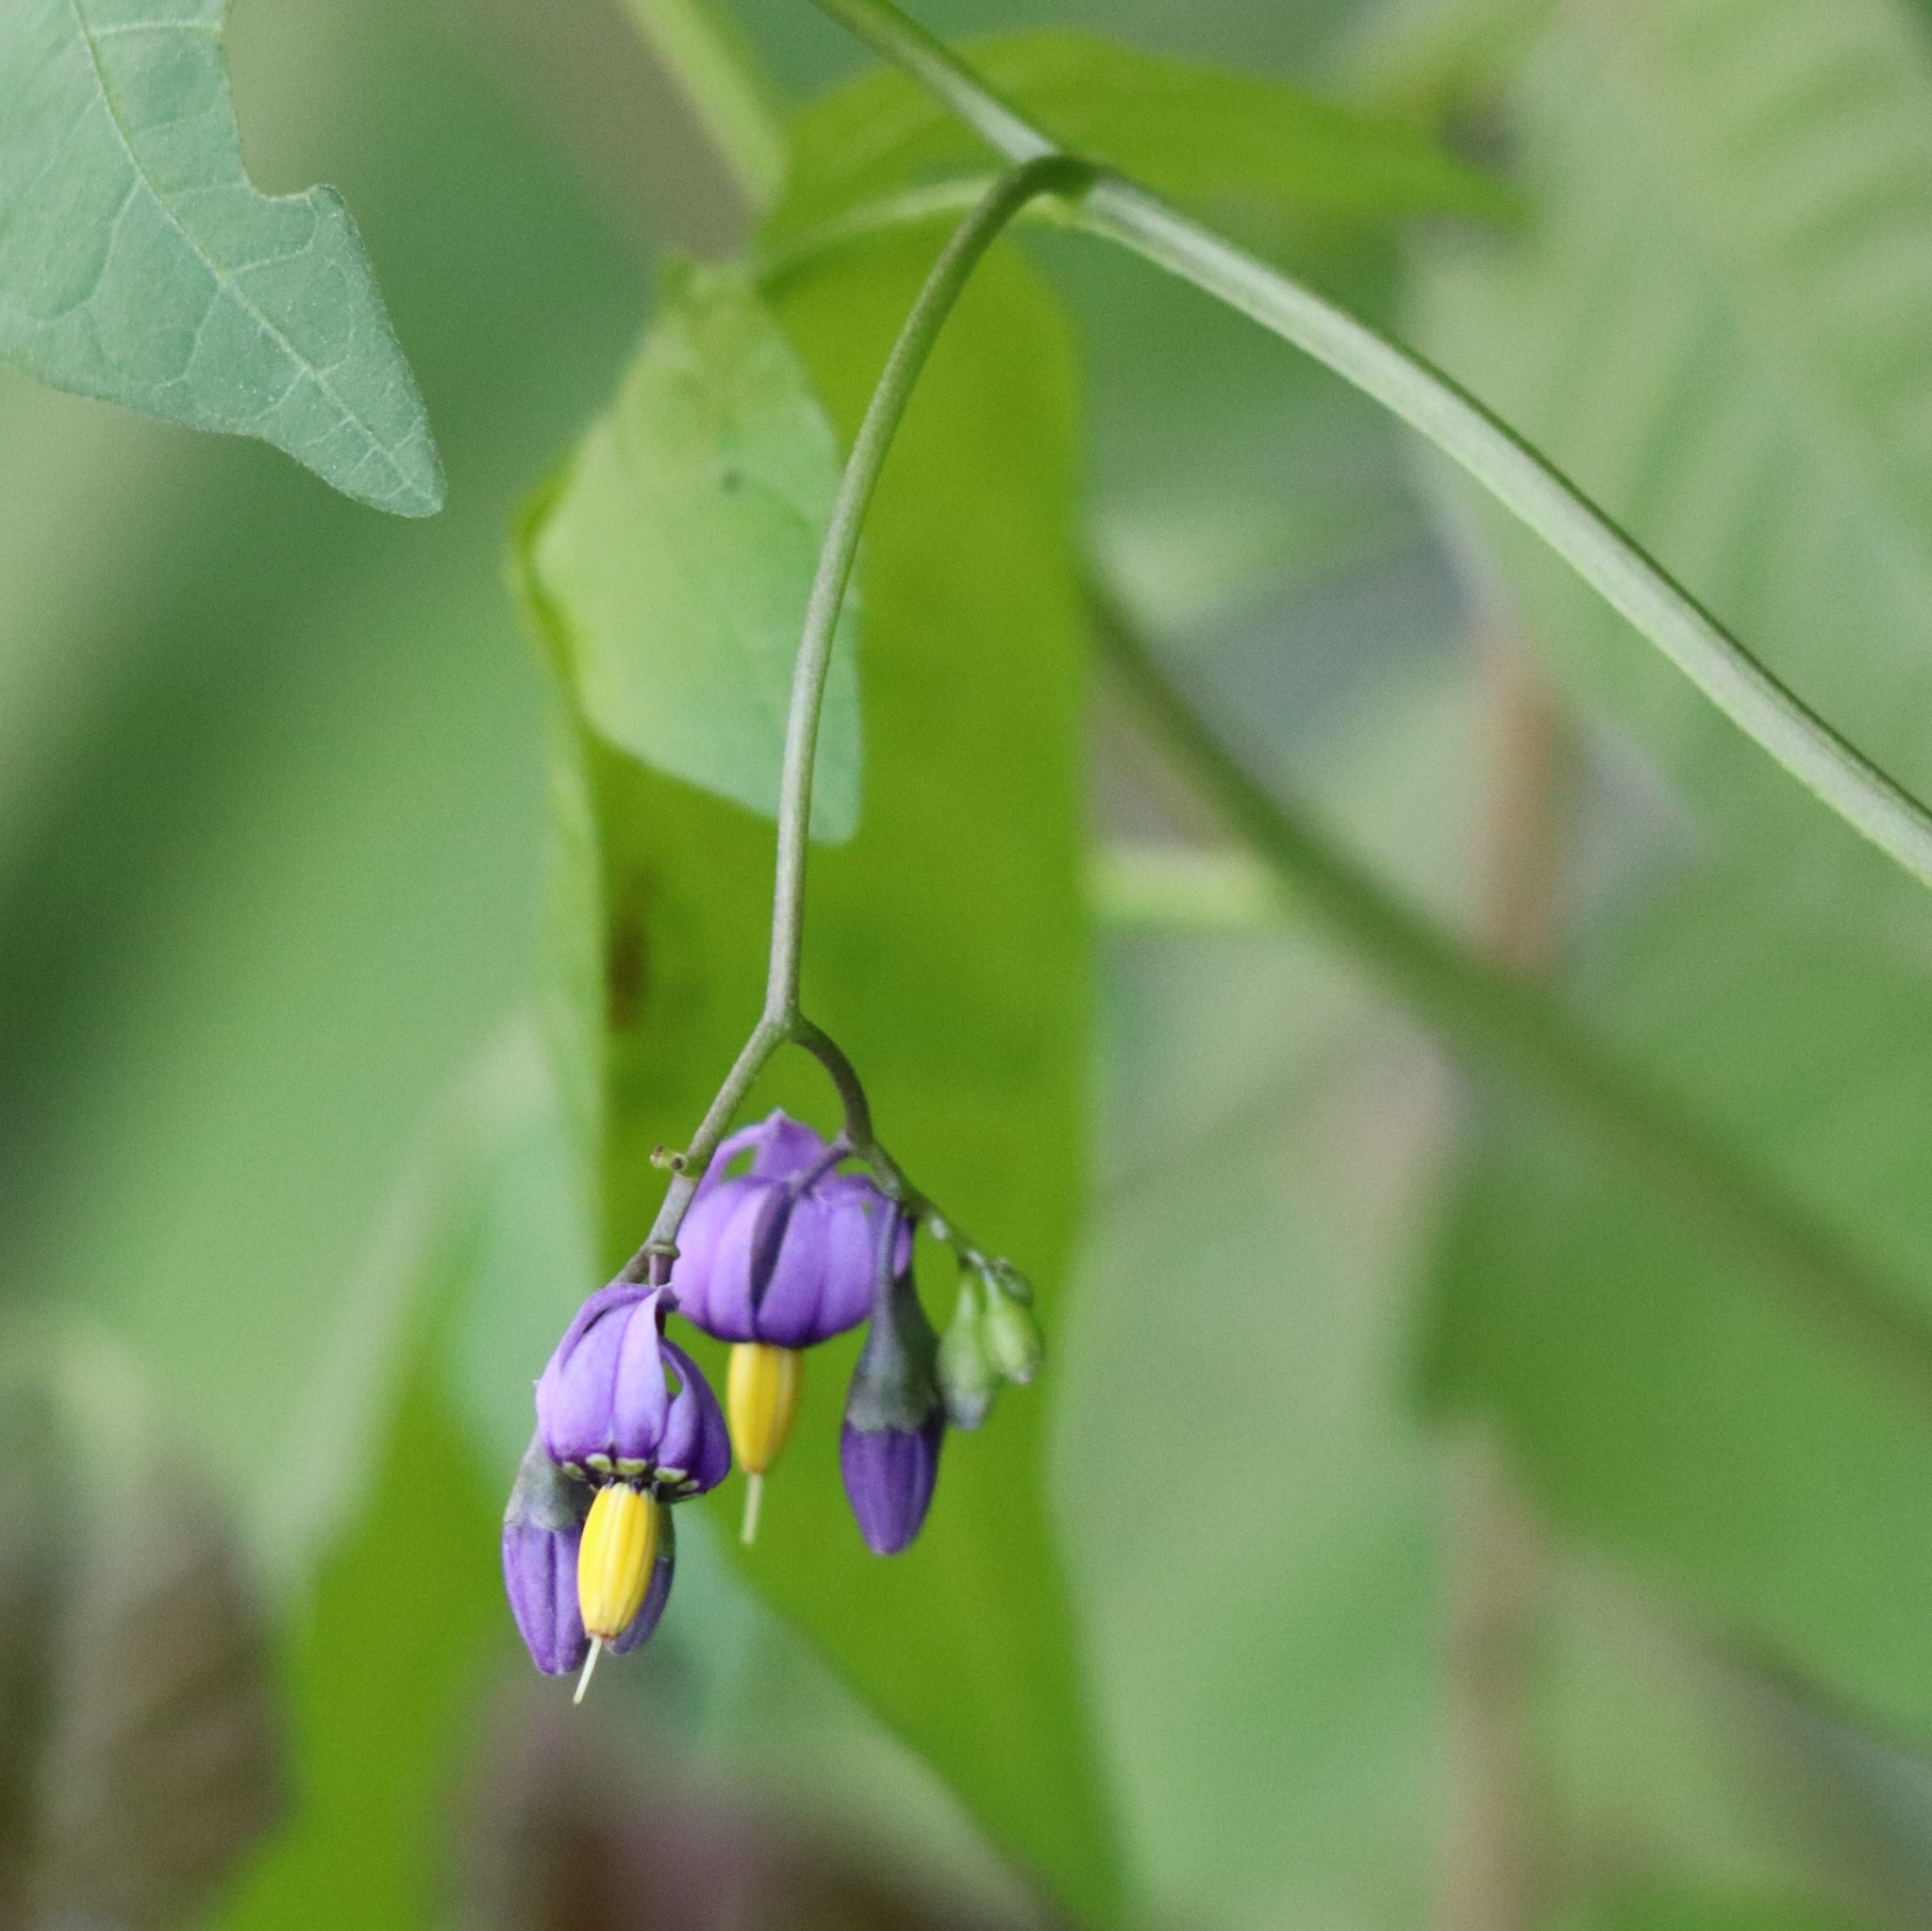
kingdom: Plantae
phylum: Tracheophyta
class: Magnoliopsida
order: Solanales
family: Solanaceae
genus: Solanum
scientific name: Solanum dulcamara
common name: Climbing nightshade
